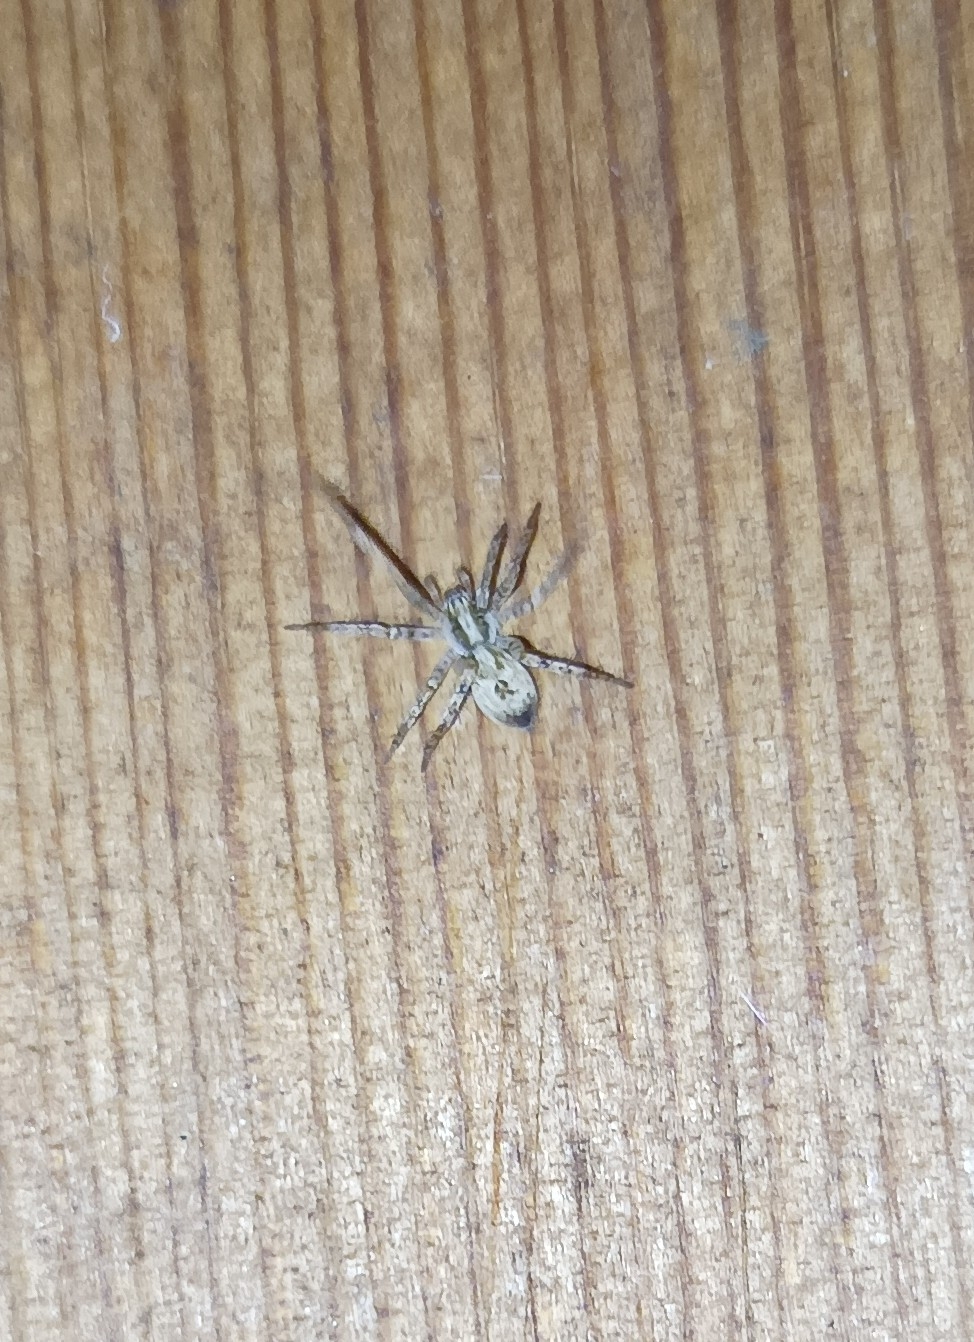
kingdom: Animalia
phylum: Arthropoda
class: Arachnida
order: Araneae
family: Anyphaenidae
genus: Anyphaena
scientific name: Anyphaena accentuata
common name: Buzzing spider
